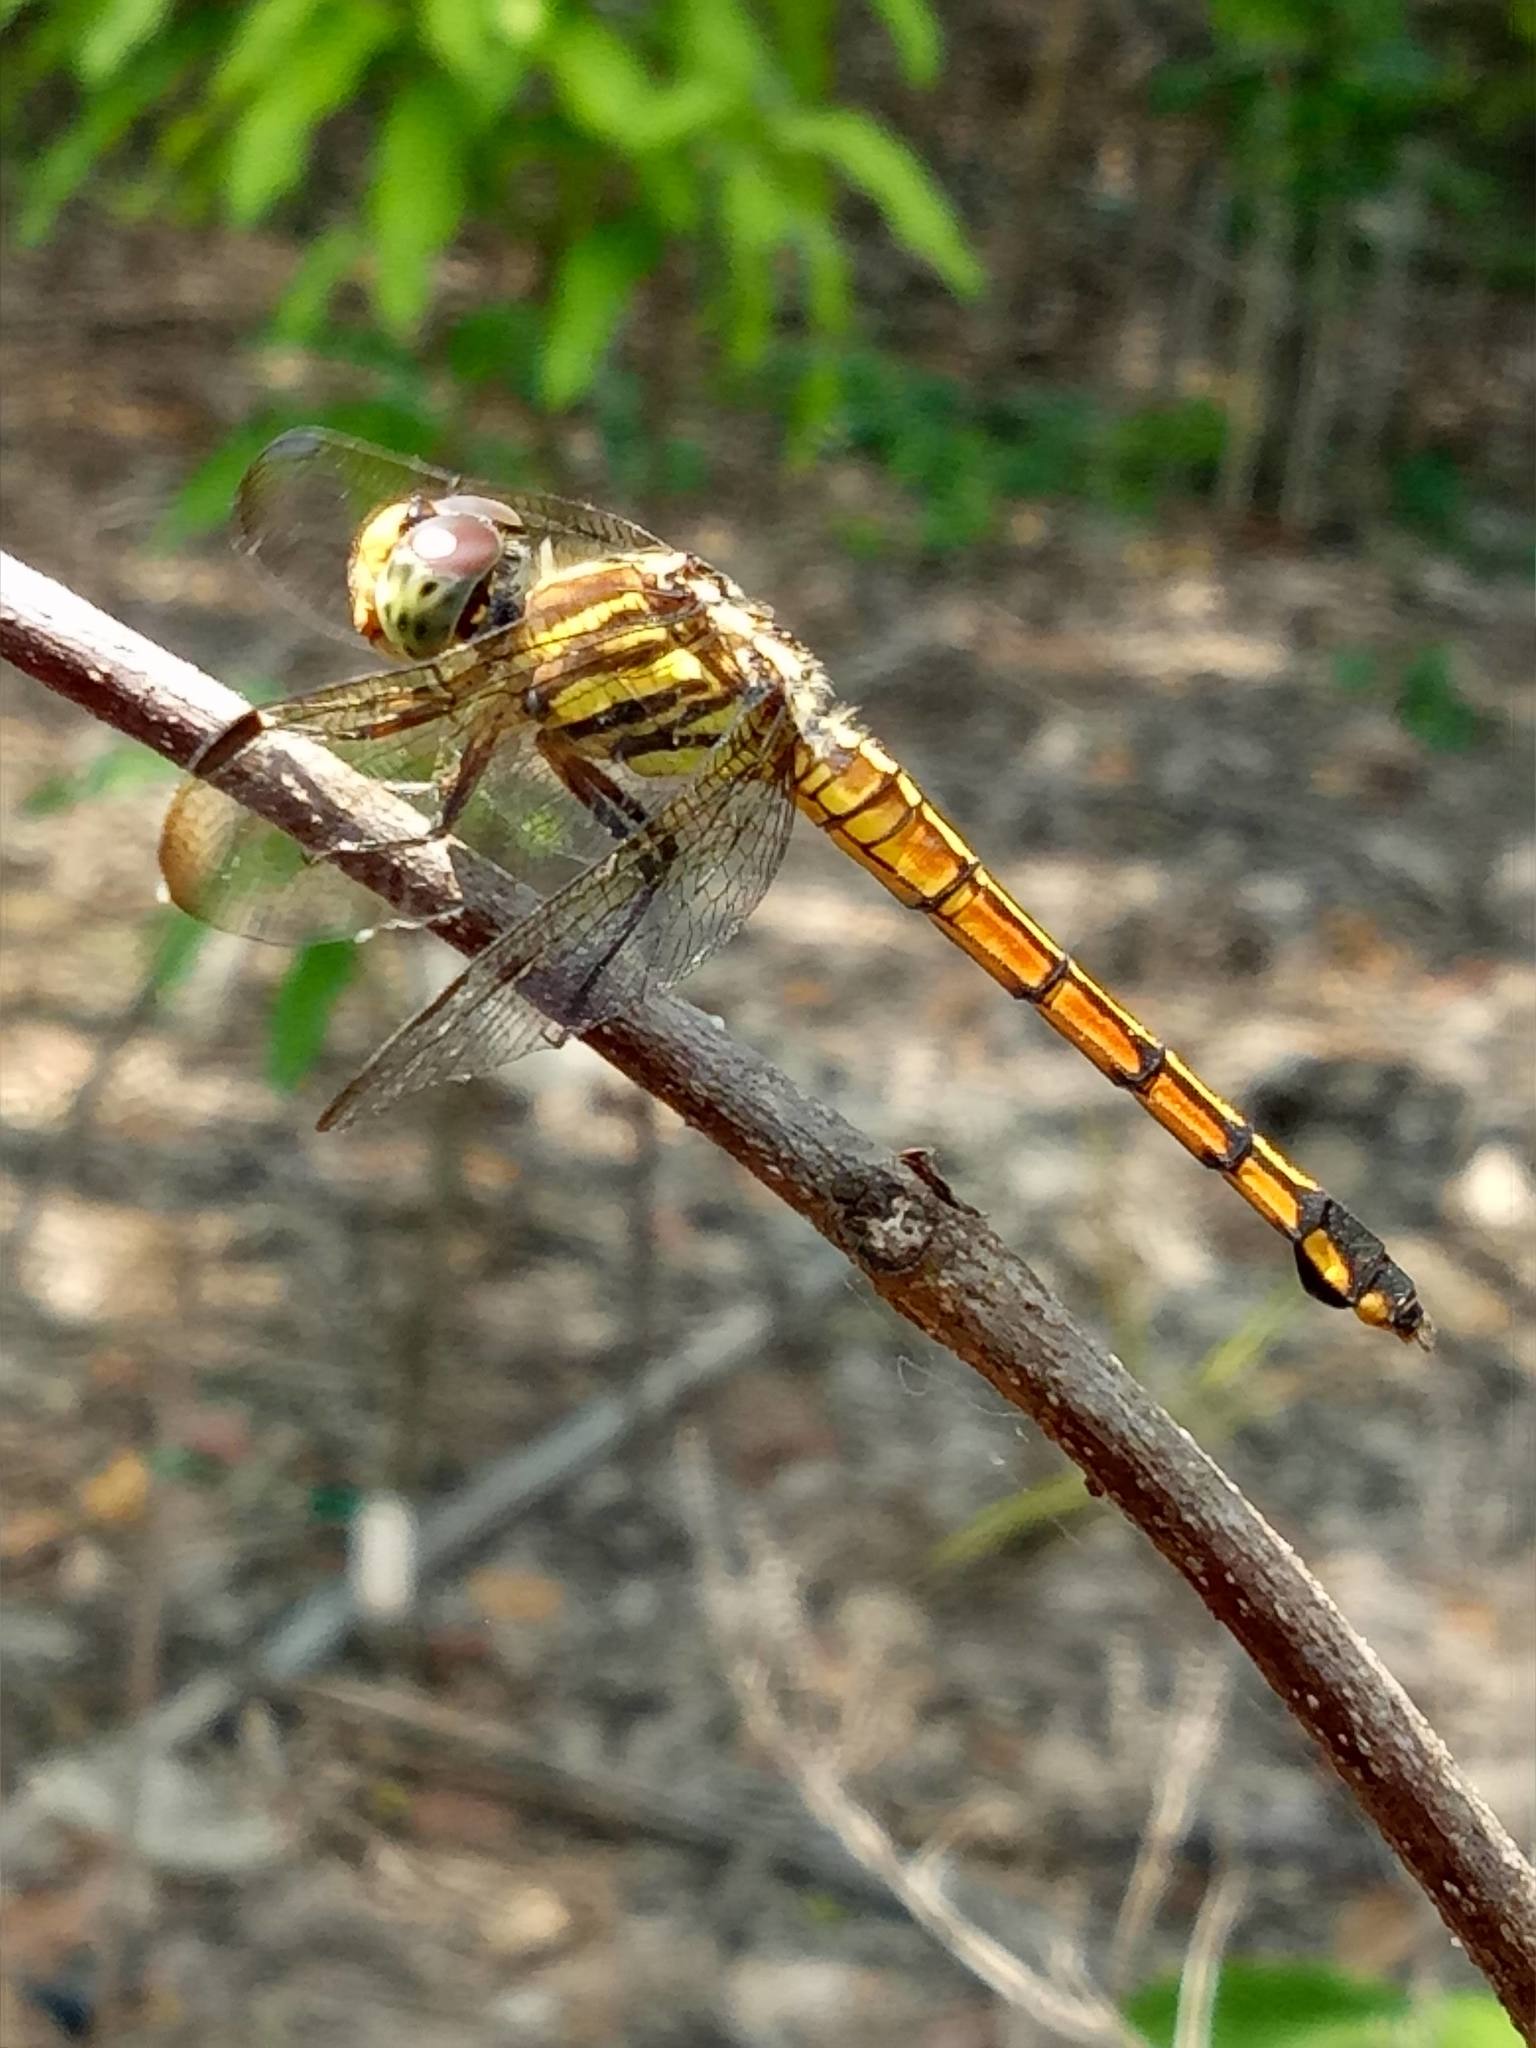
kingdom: Animalia
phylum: Arthropoda
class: Insecta
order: Odonata
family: Libellulidae
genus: Potamarcha
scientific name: Potamarcha congener
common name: Blue chaser
